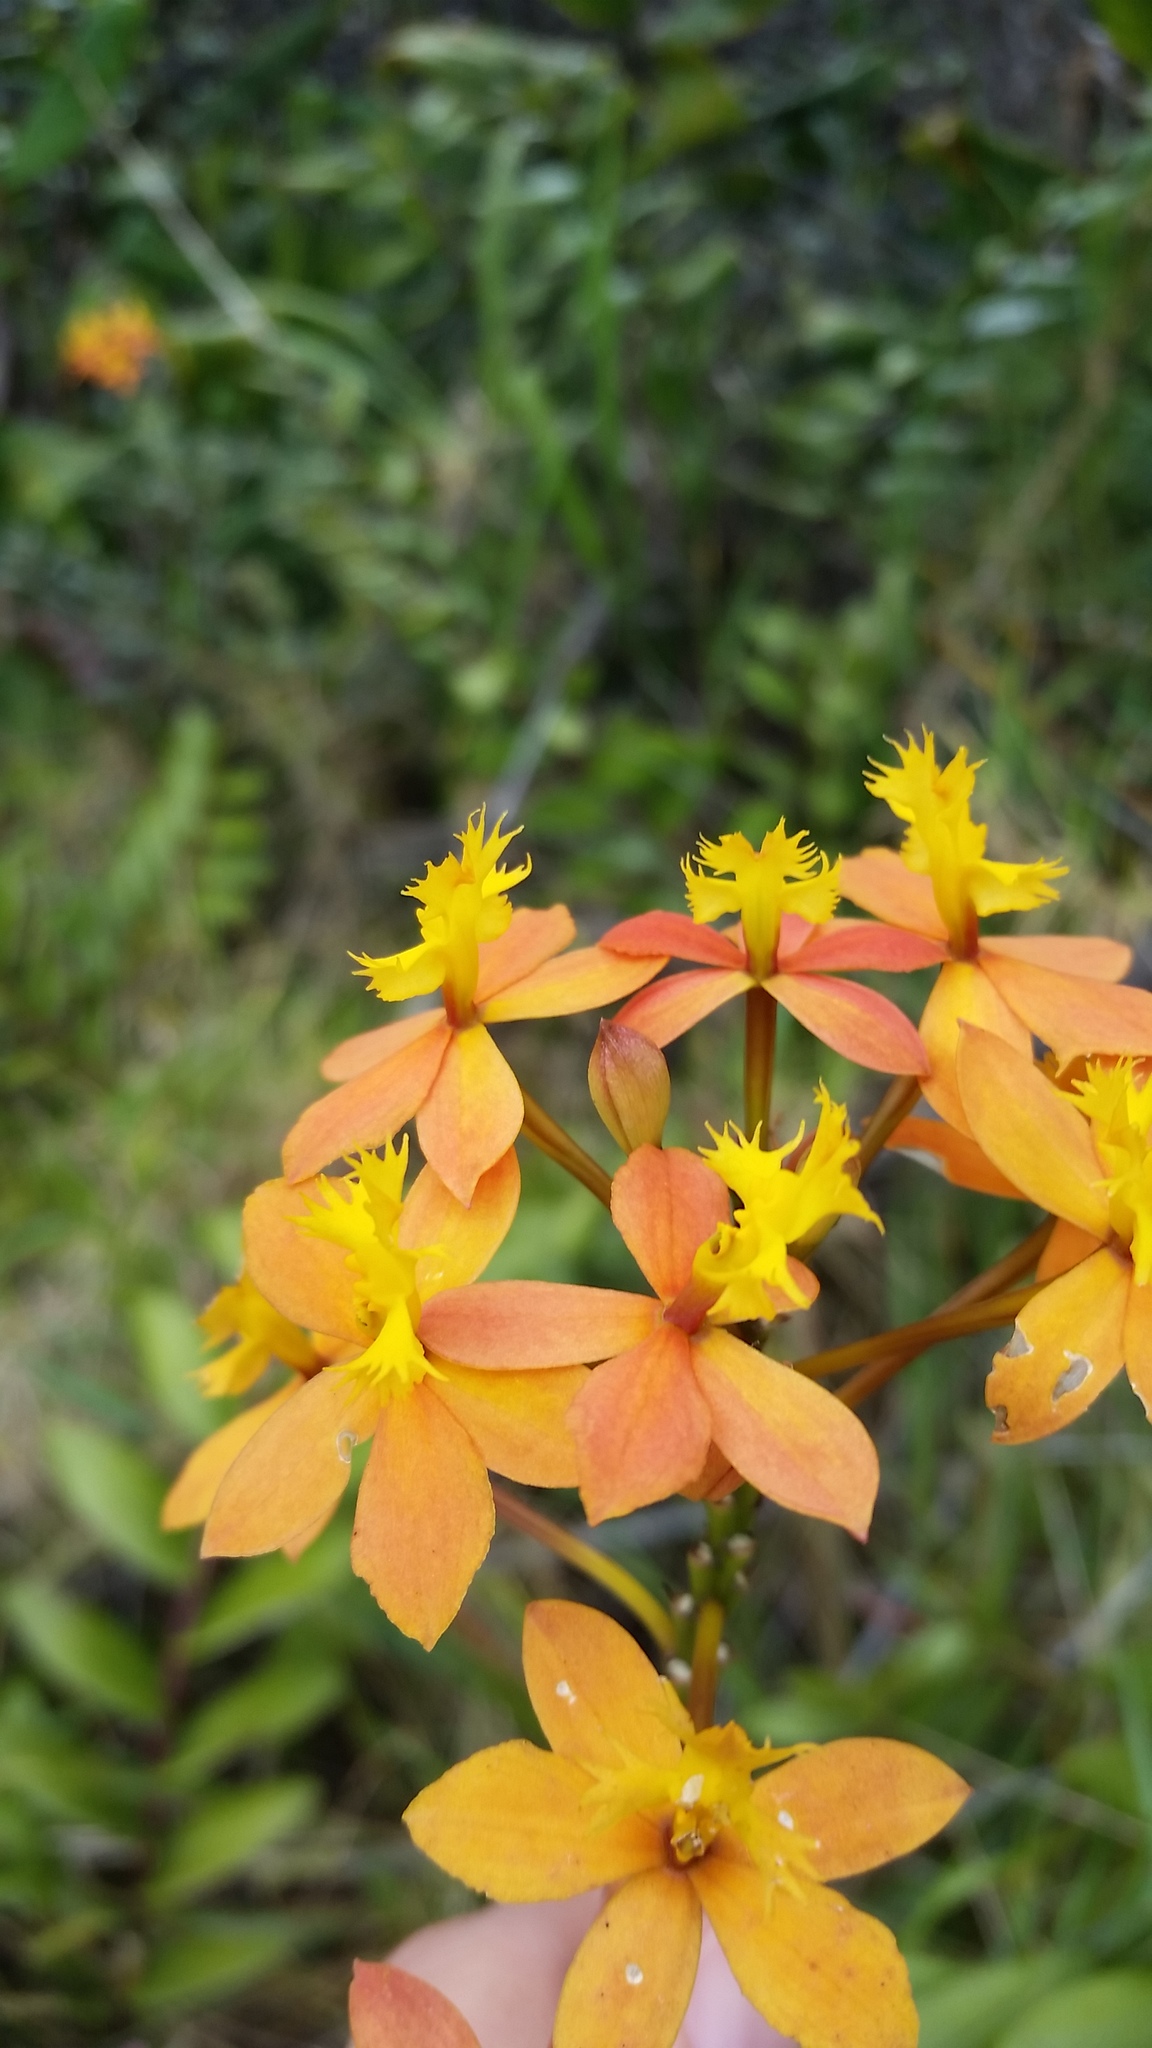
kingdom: Plantae
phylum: Tracheophyta
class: Liliopsida
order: Asparagales
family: Orchidaceae
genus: Epidendrum
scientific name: Epidendrum obrienianum
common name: O'brien's star orchid
